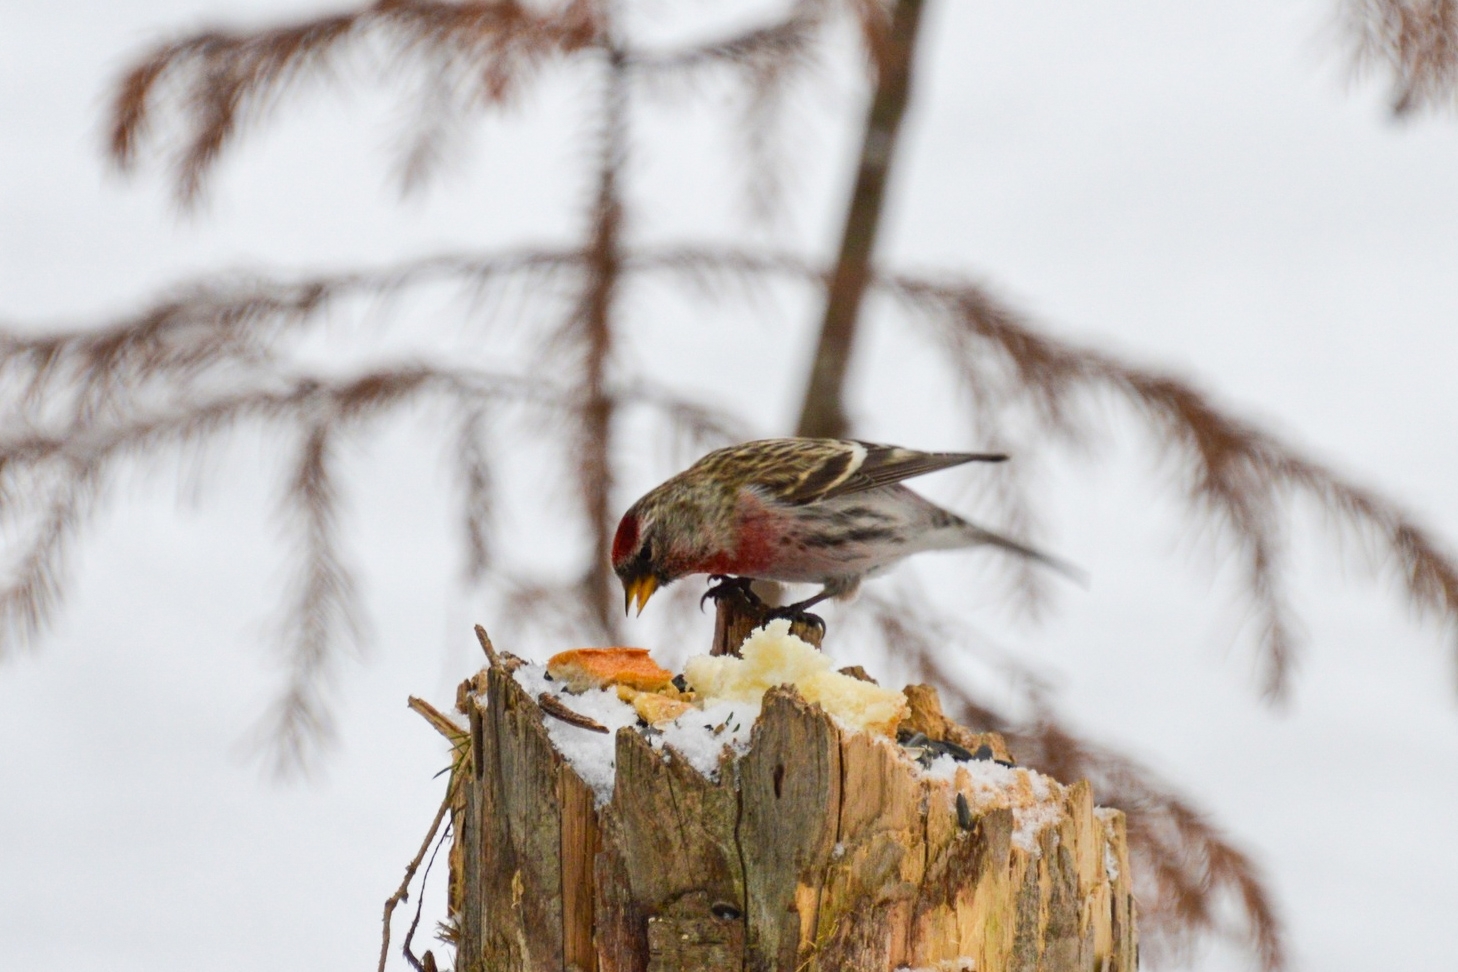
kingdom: Animalia
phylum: Chordata
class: Aves
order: Passeriformes
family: Fringillidae
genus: Acanthis
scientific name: Acanthis flammea
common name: Common redpoll
